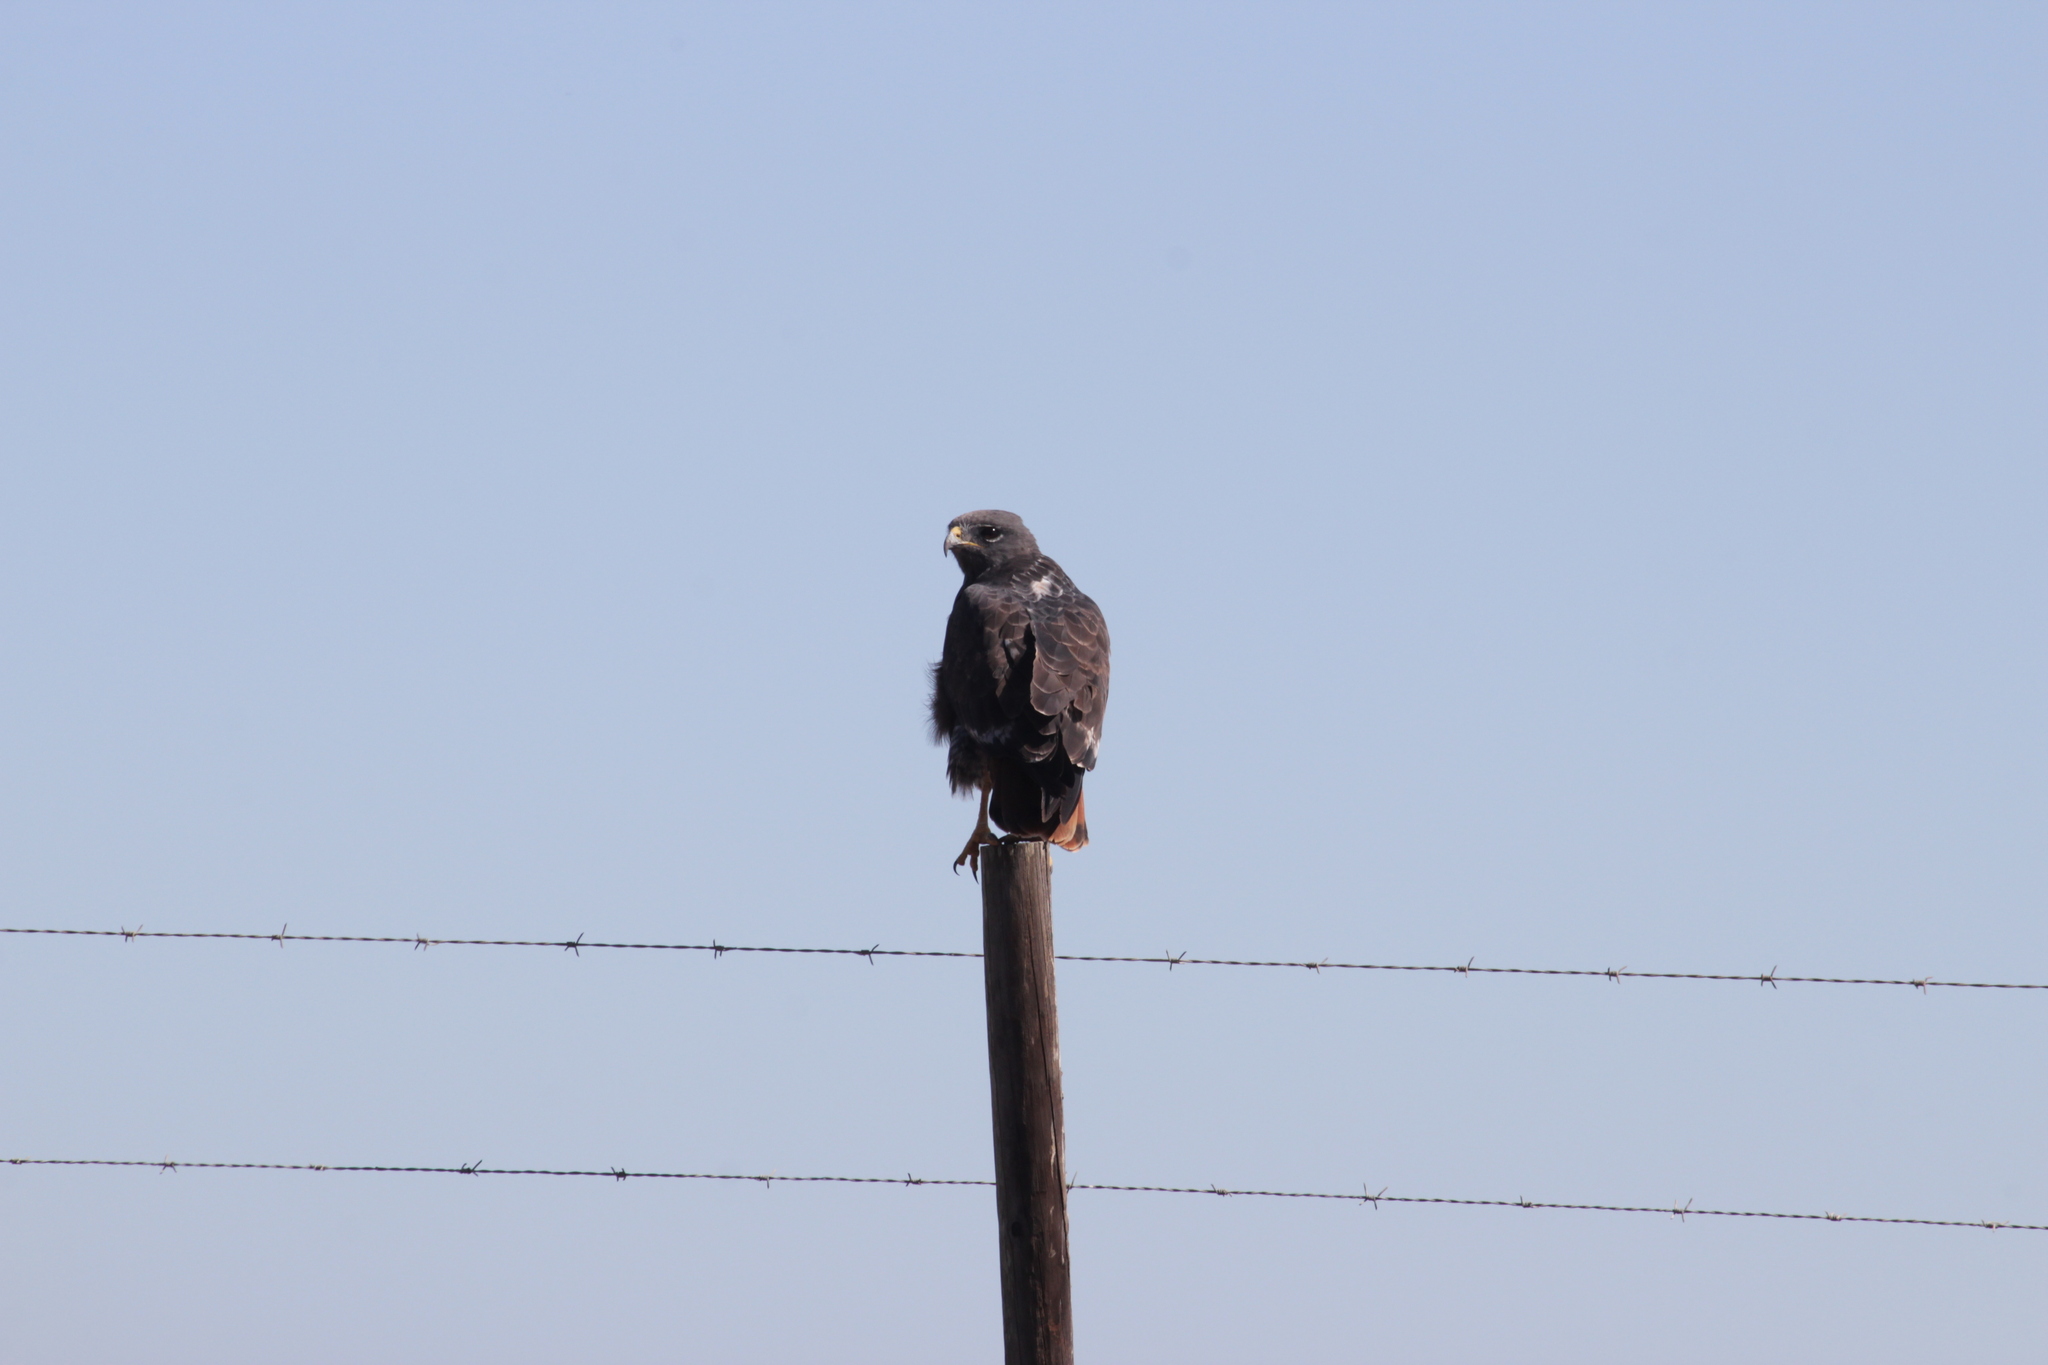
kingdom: Animalia
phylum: Chordata
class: Aves
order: Accipitriformes
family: Accipitridae
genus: Buteo
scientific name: Buteo rufofuscus
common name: Jackal buzzard
